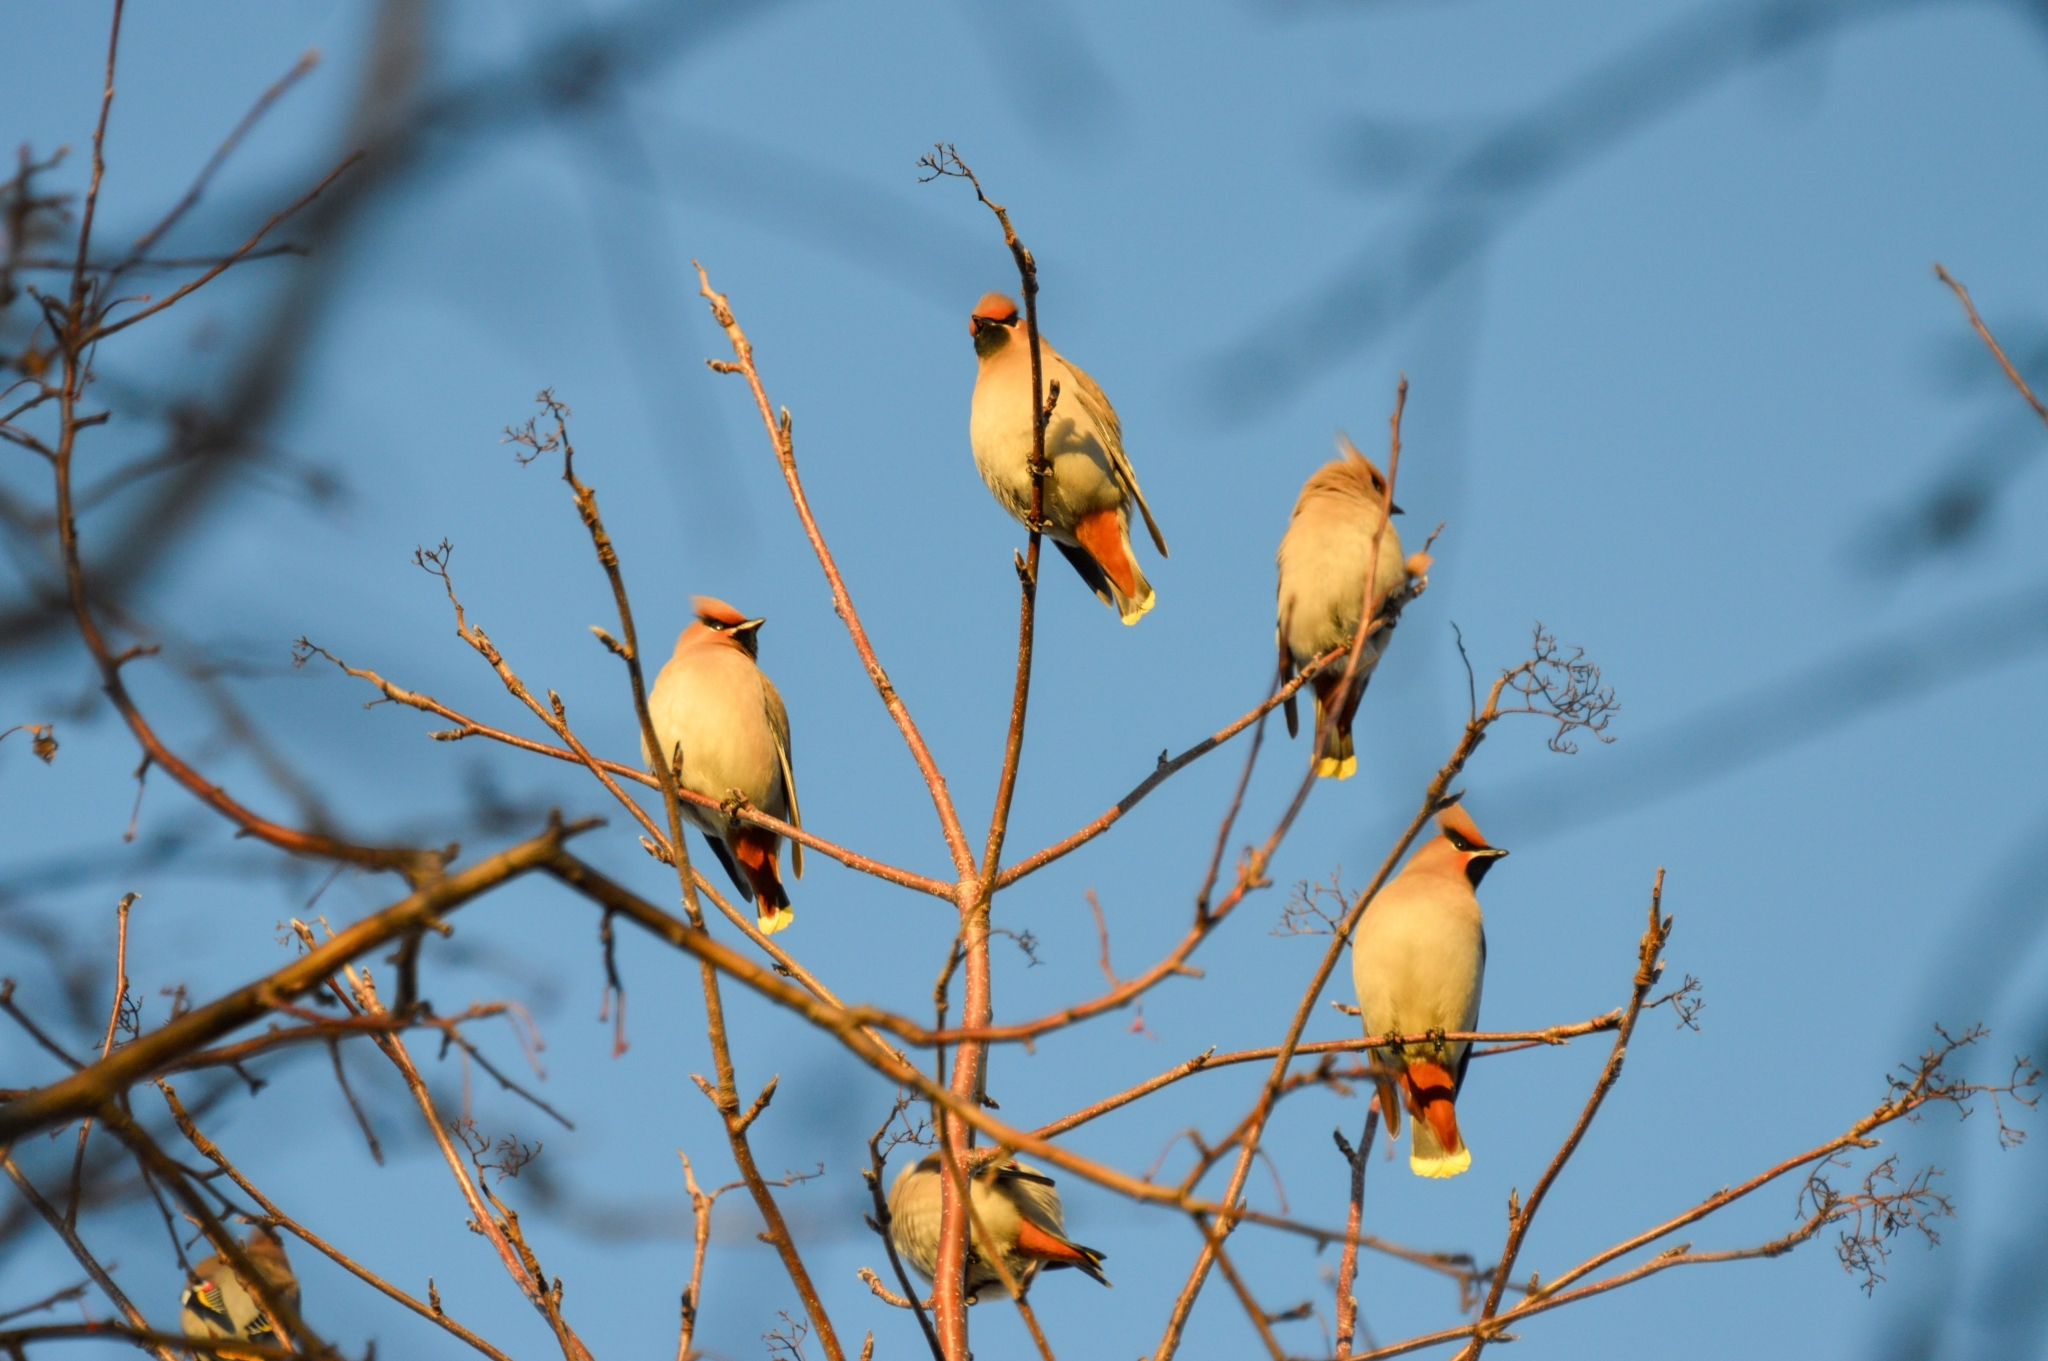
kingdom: Animalia
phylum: Chordata
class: Aves
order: Passeriformes
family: Bombycillidae
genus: Bombycilla
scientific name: Bombycilla garrulus
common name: Bohemian waxwing
